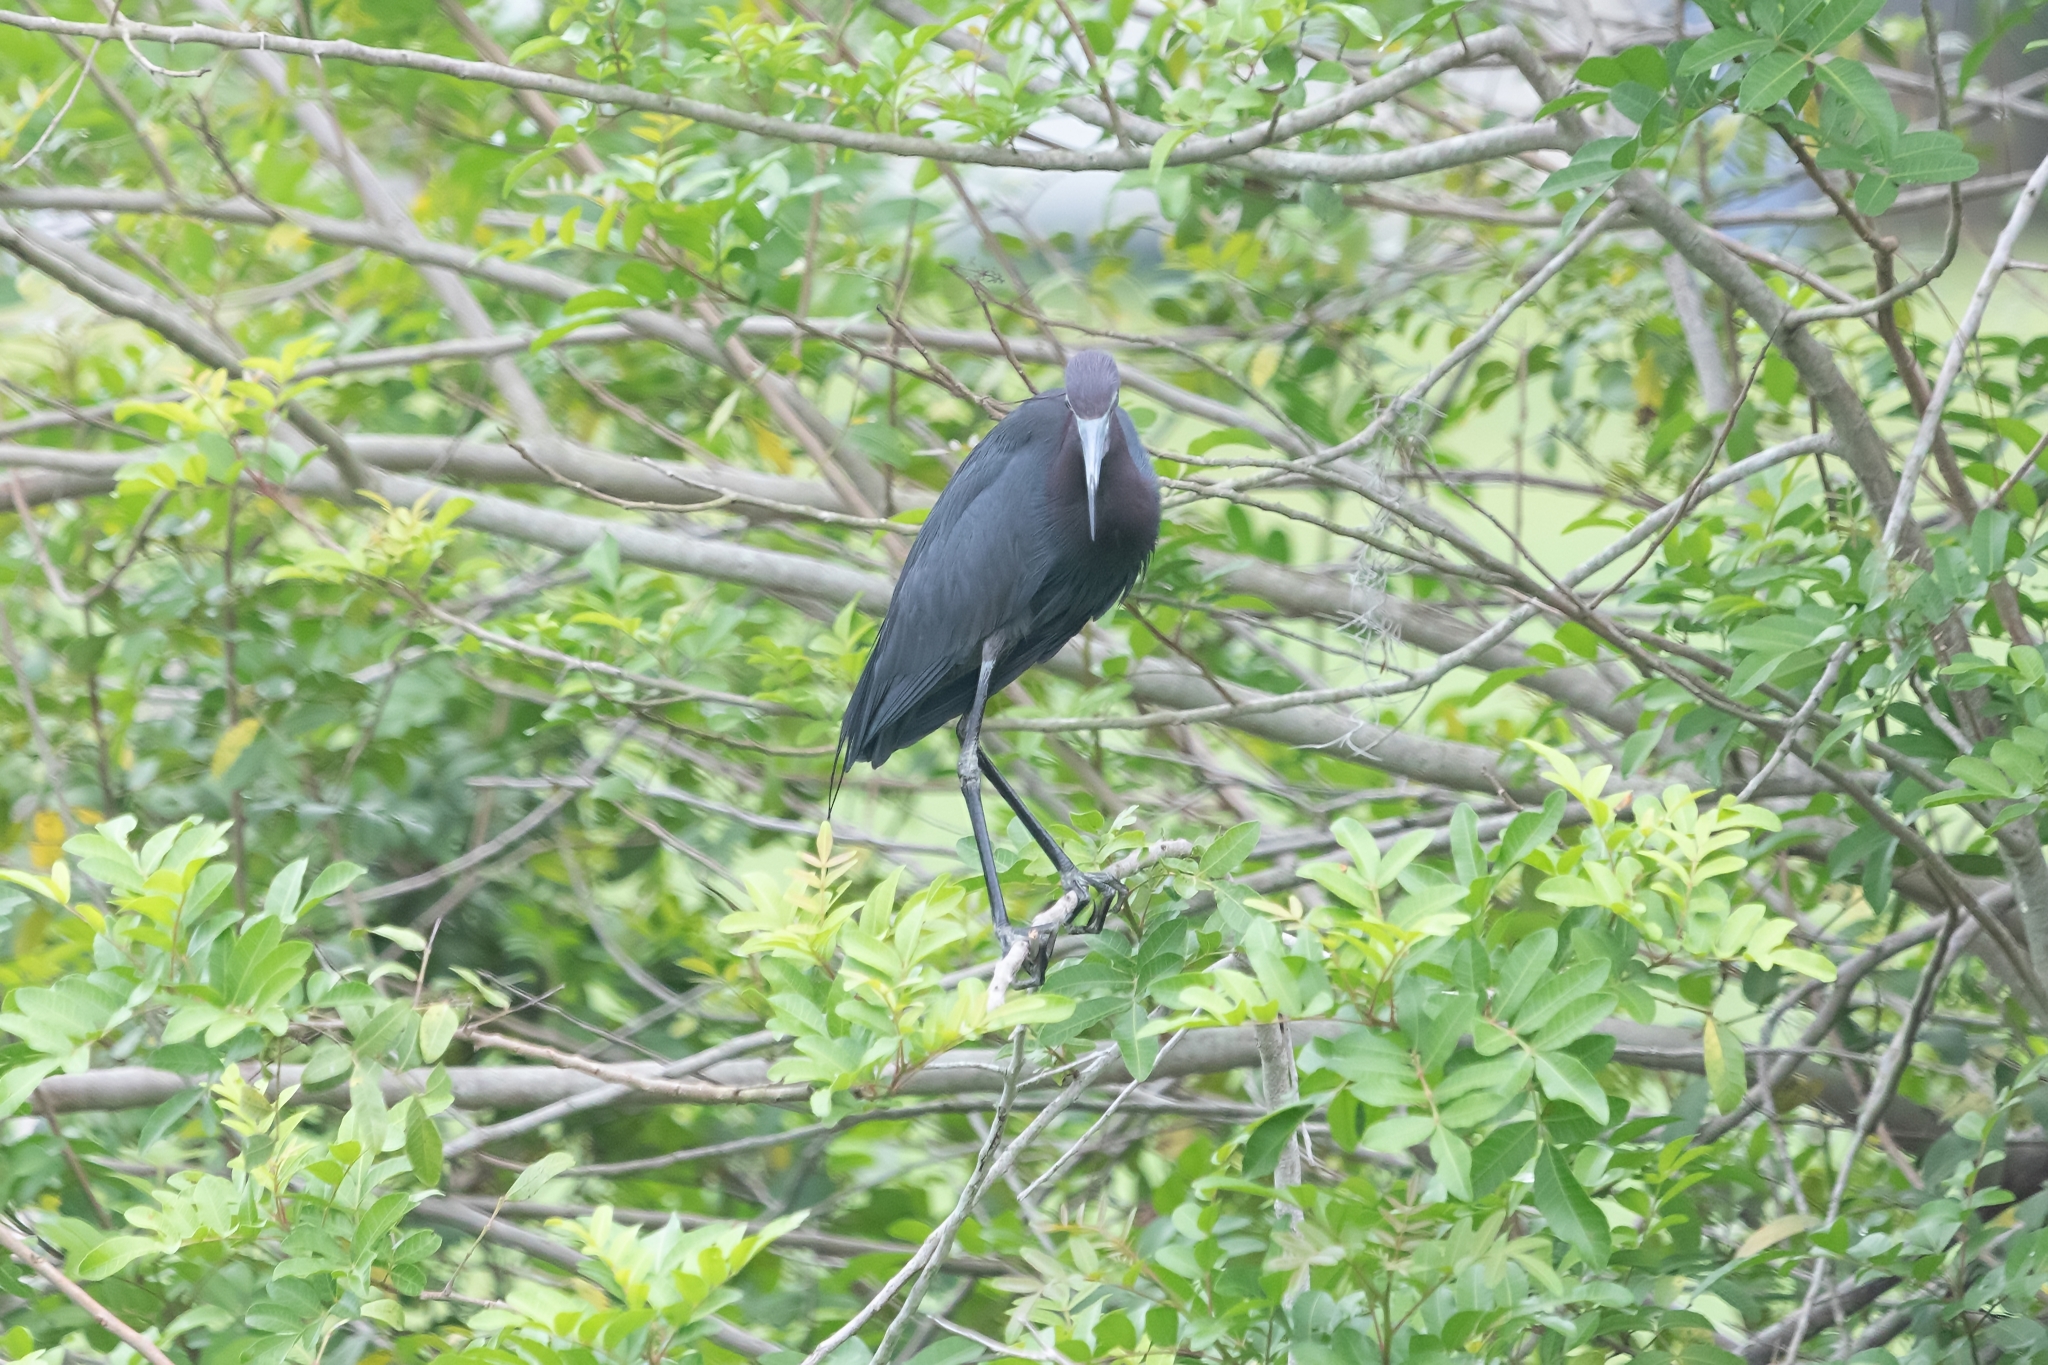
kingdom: Animalia
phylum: Chordata
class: Aves
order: Pelecaniformes
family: Ardeidae
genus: Egretta
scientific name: Egretta caerulea
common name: Little blue heron
